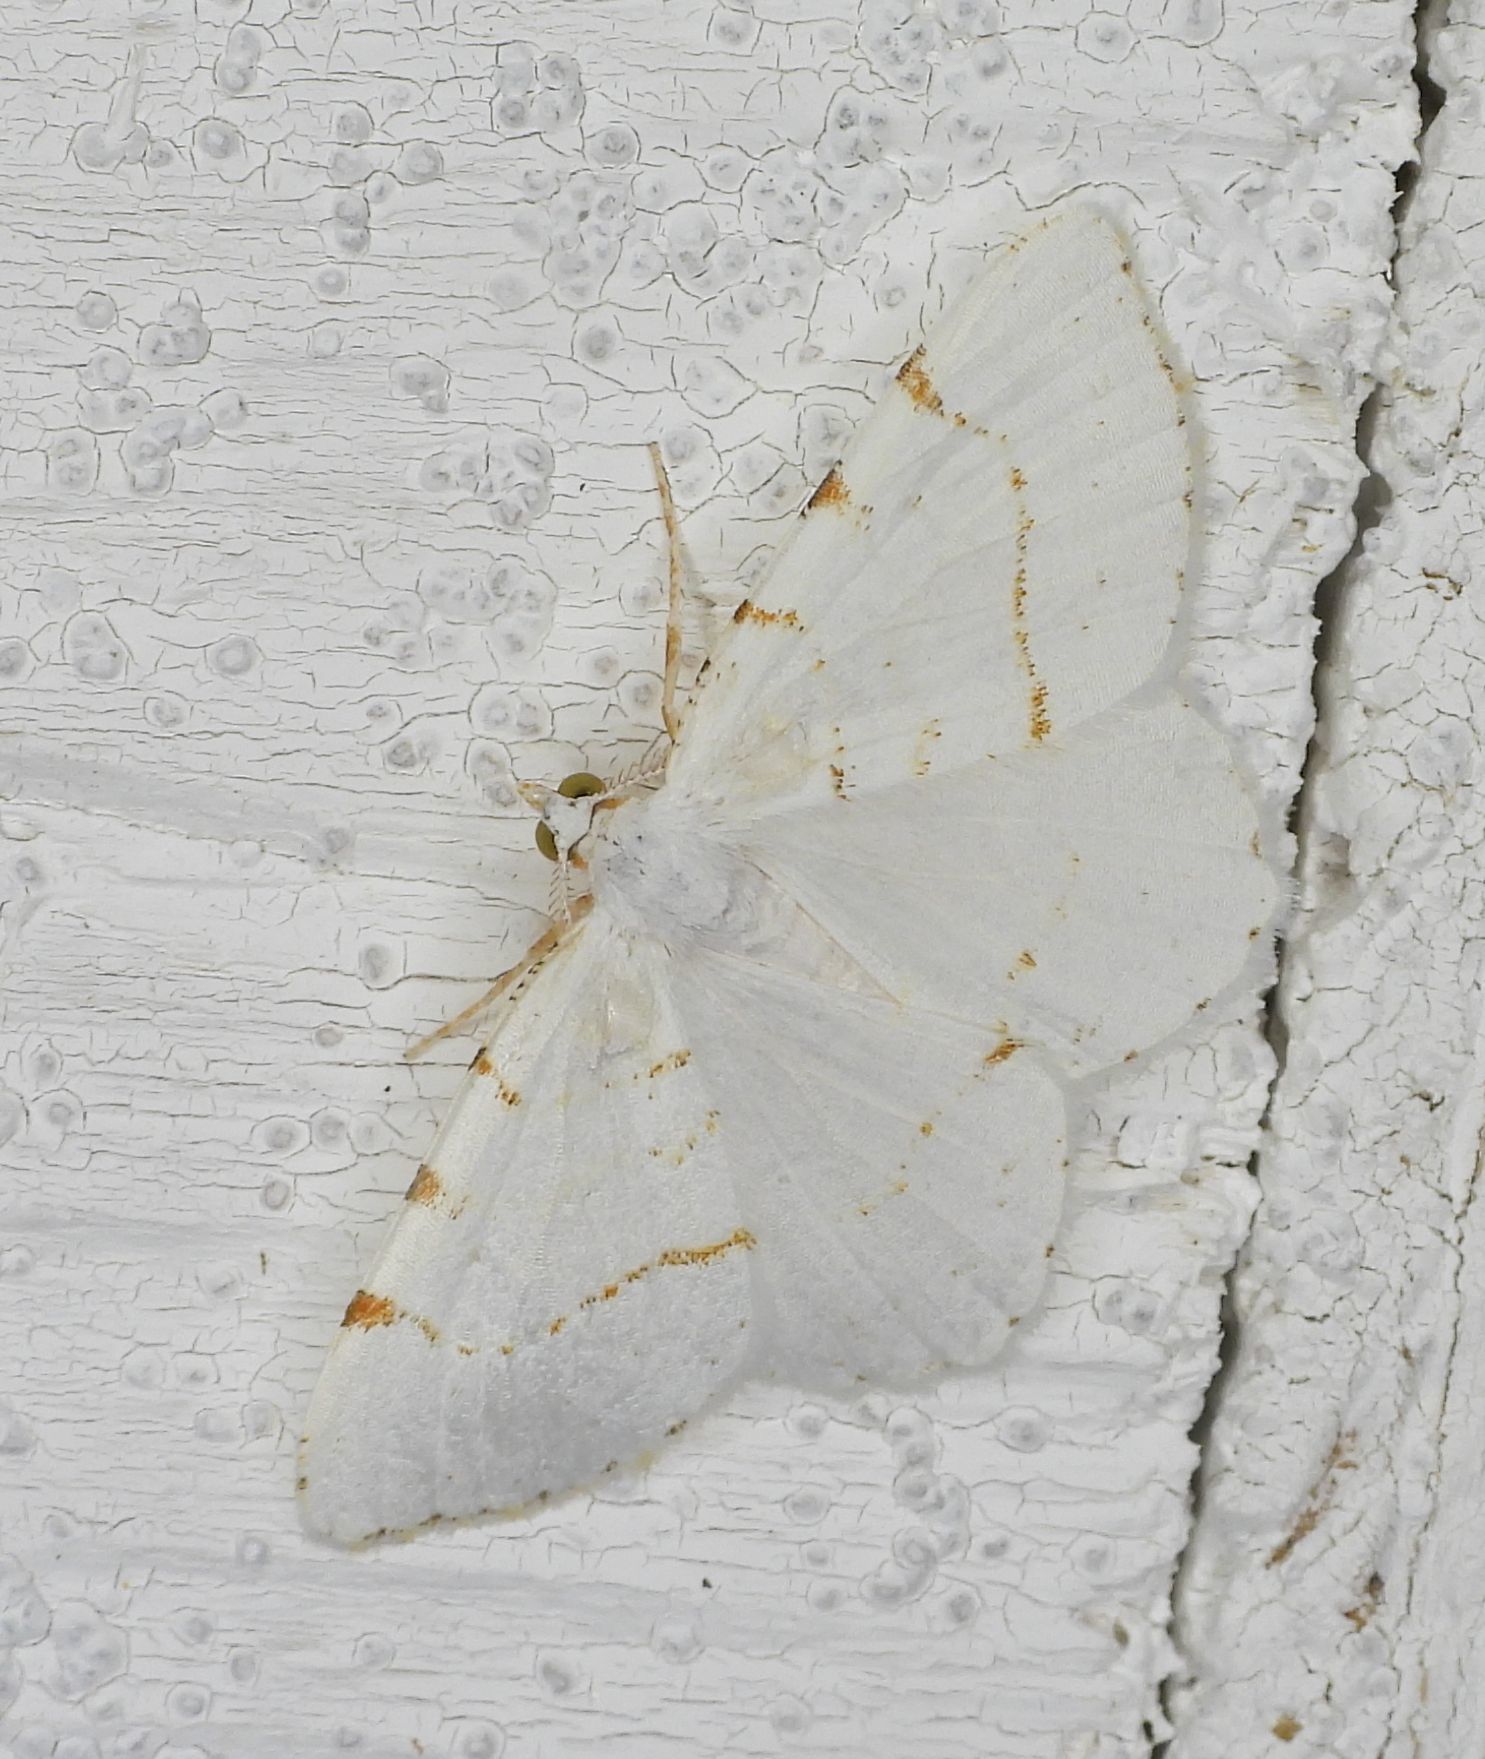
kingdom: Animalia
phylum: Arthropoda
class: Insecta
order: Lepidoptera
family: Geometridae
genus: Macaria
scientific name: Macaria pustularia
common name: Lesser maple spanworm moth
